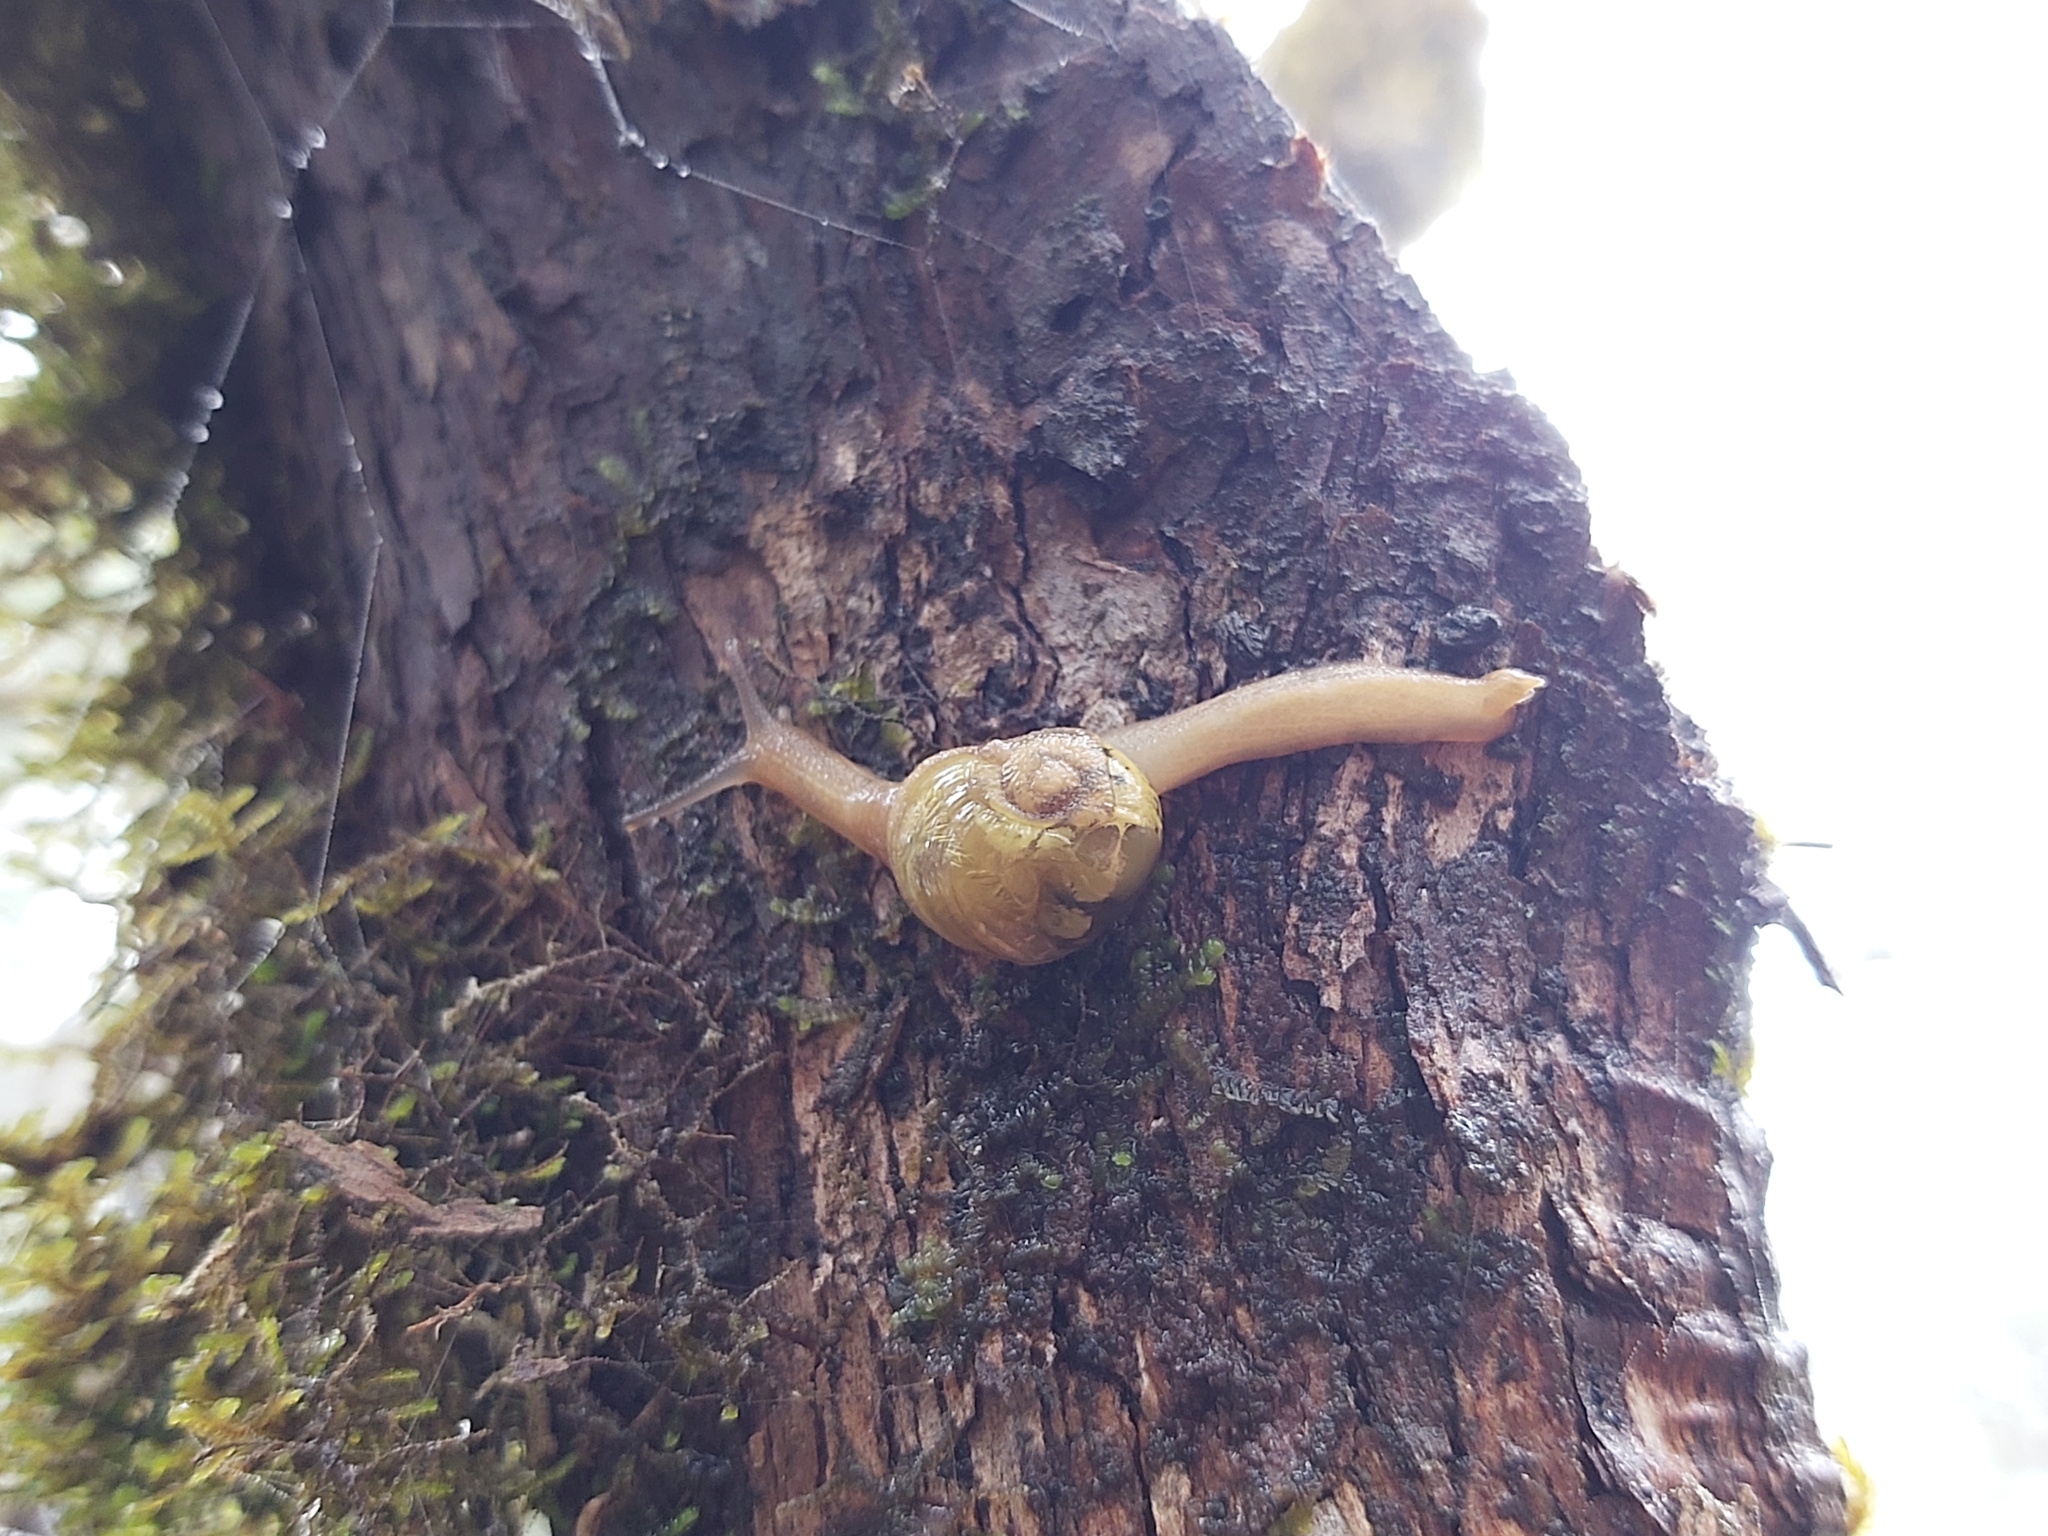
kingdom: Animalia
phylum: Mollusca
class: Gastropoda
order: Stylommatophora
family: Helicarionidae
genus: Mysticarion
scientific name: Mysticarion porrectus
